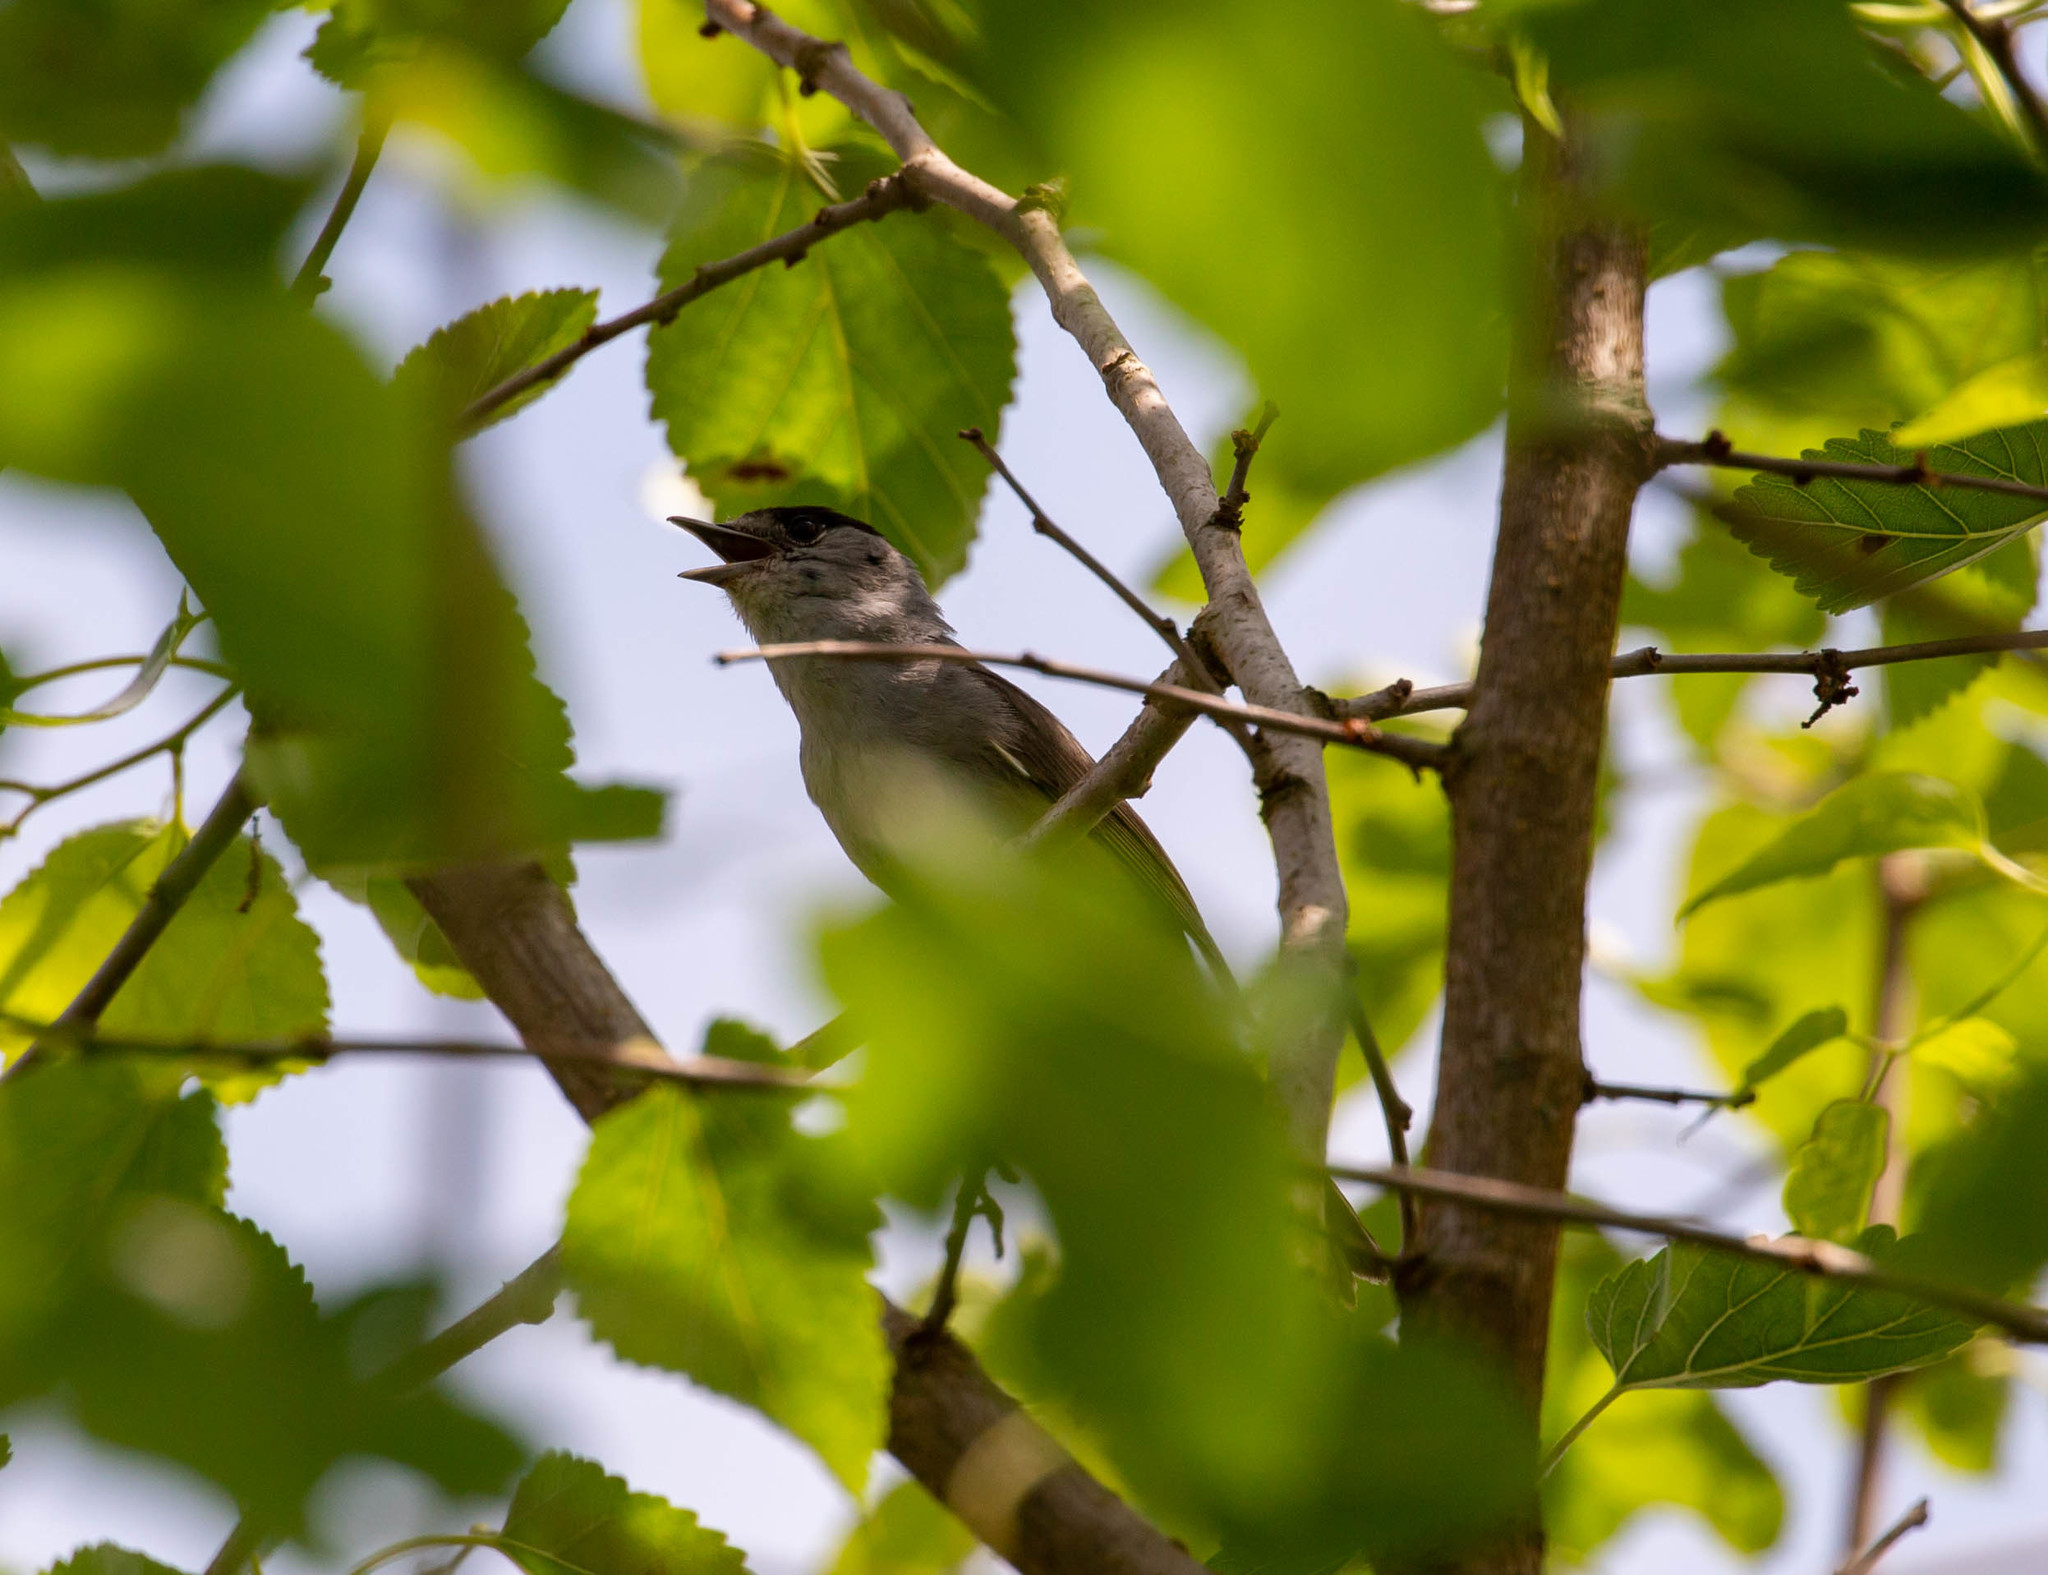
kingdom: Animalia
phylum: Chordata
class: Aves
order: Passeriformes
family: Sylviidae
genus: Sylvia
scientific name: Sylvia atricapilla
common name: Eurasian blackcap
